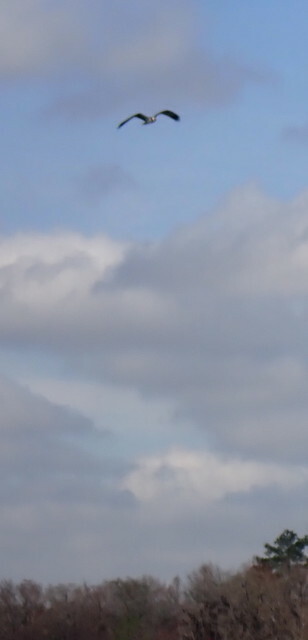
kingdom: Animalia
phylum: Chordata
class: Aves
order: Accipitriformes
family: Pandionidae
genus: Pandion
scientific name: Pandion haliaetus
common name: Osprey
